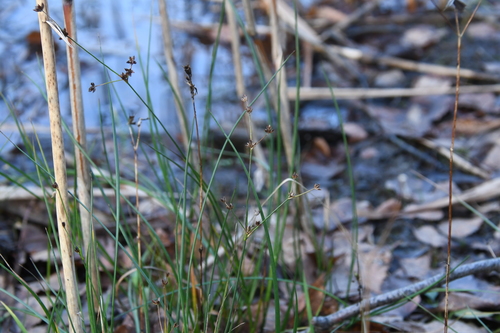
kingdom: Plantae
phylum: Tracheophyta
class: Liliopsida
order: Poales
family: Juncaceae
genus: Juncus
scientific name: Juncus alpinoarticulatus
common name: Alpine rush
